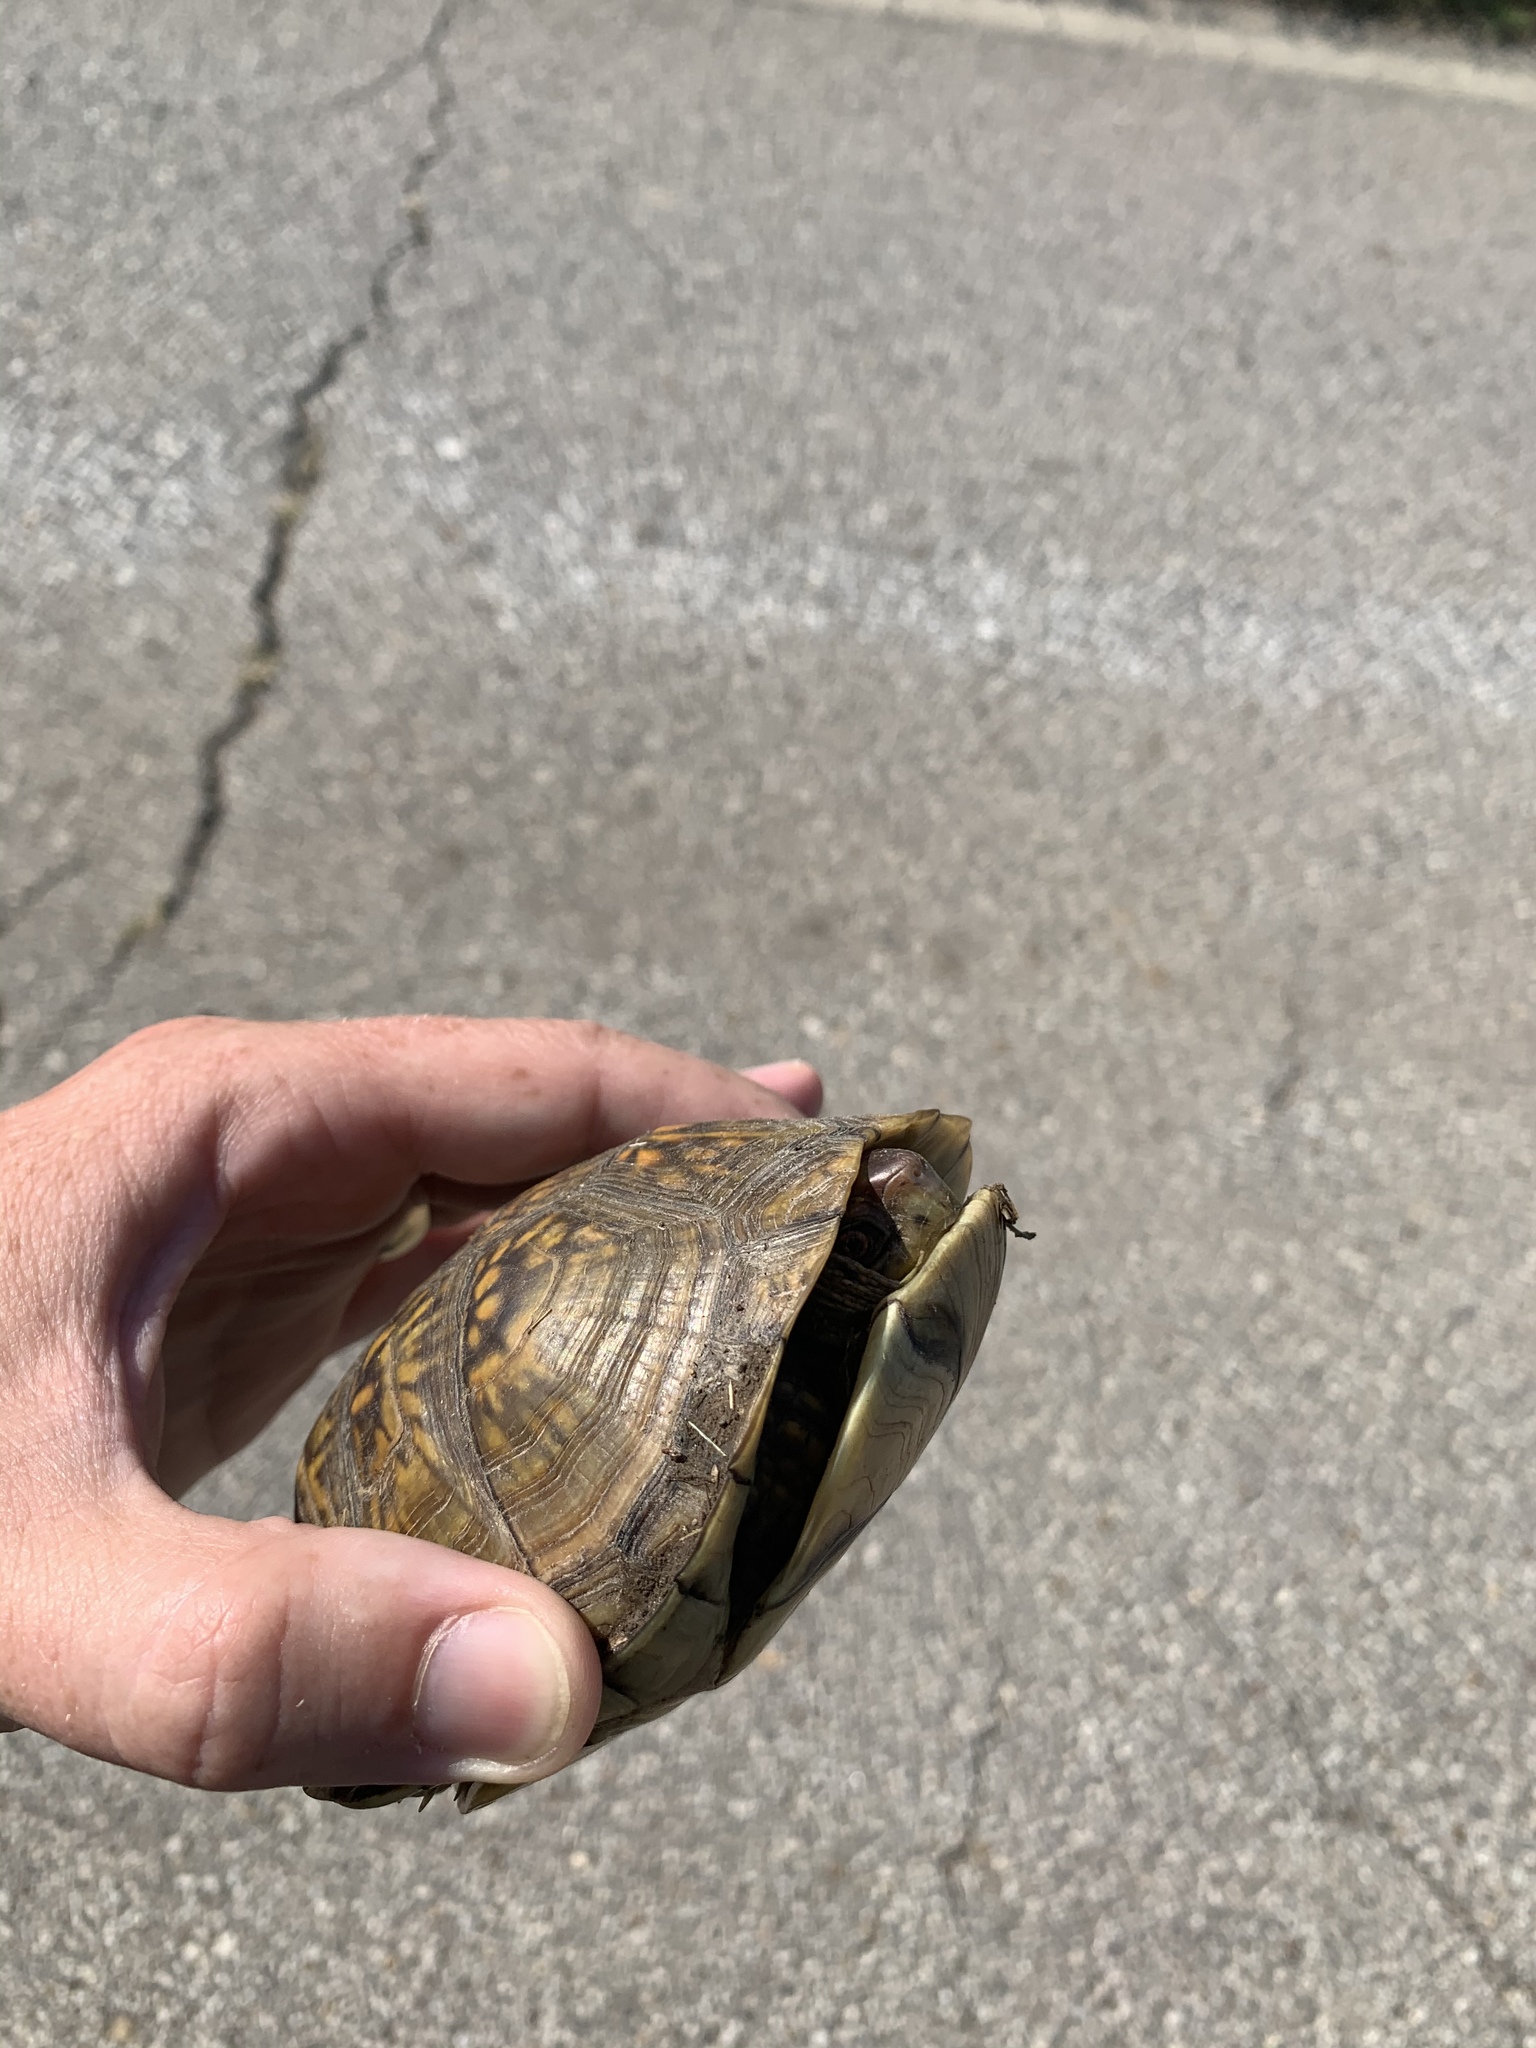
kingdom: Animalia
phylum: Chordata
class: Testudines
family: Emydidae
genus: Terrapene
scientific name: Terrapene carolina
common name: Common box turtle
